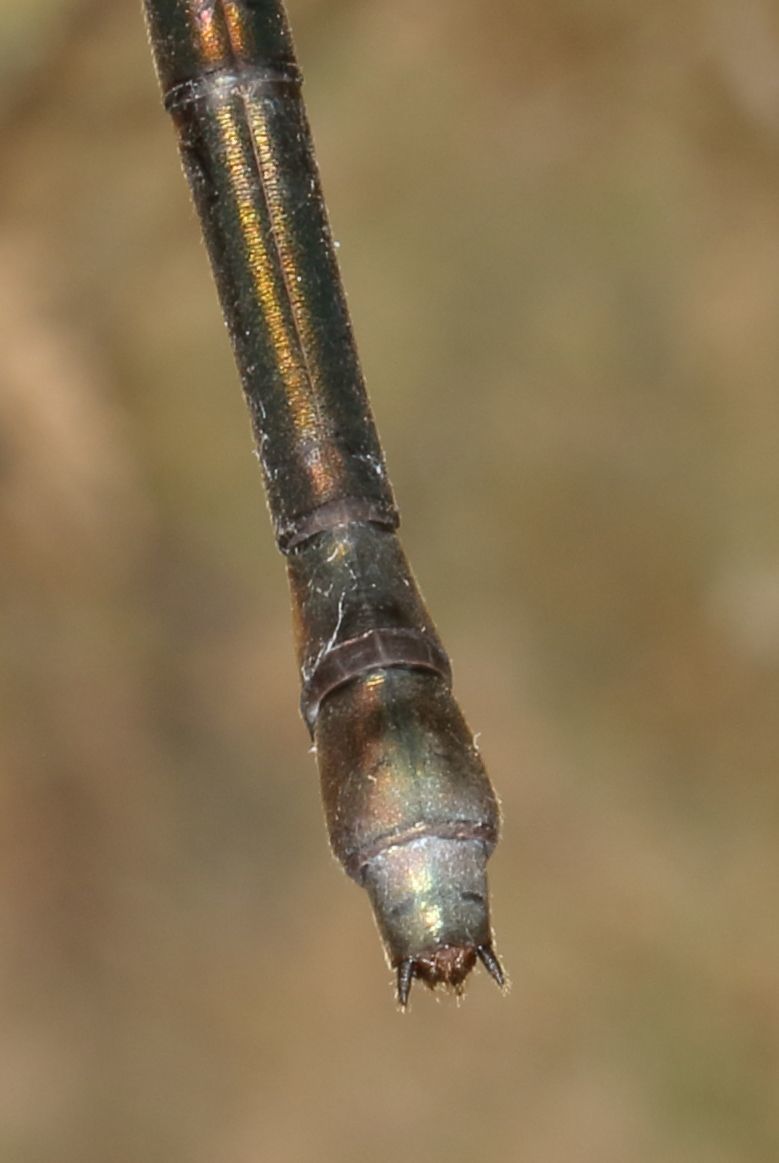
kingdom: Animalia
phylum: Arthropoda
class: Insecta
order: Odonata
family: Synlestidae
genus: Chlorolestes
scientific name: Chlorolestes tessellatus
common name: Forest malachite
